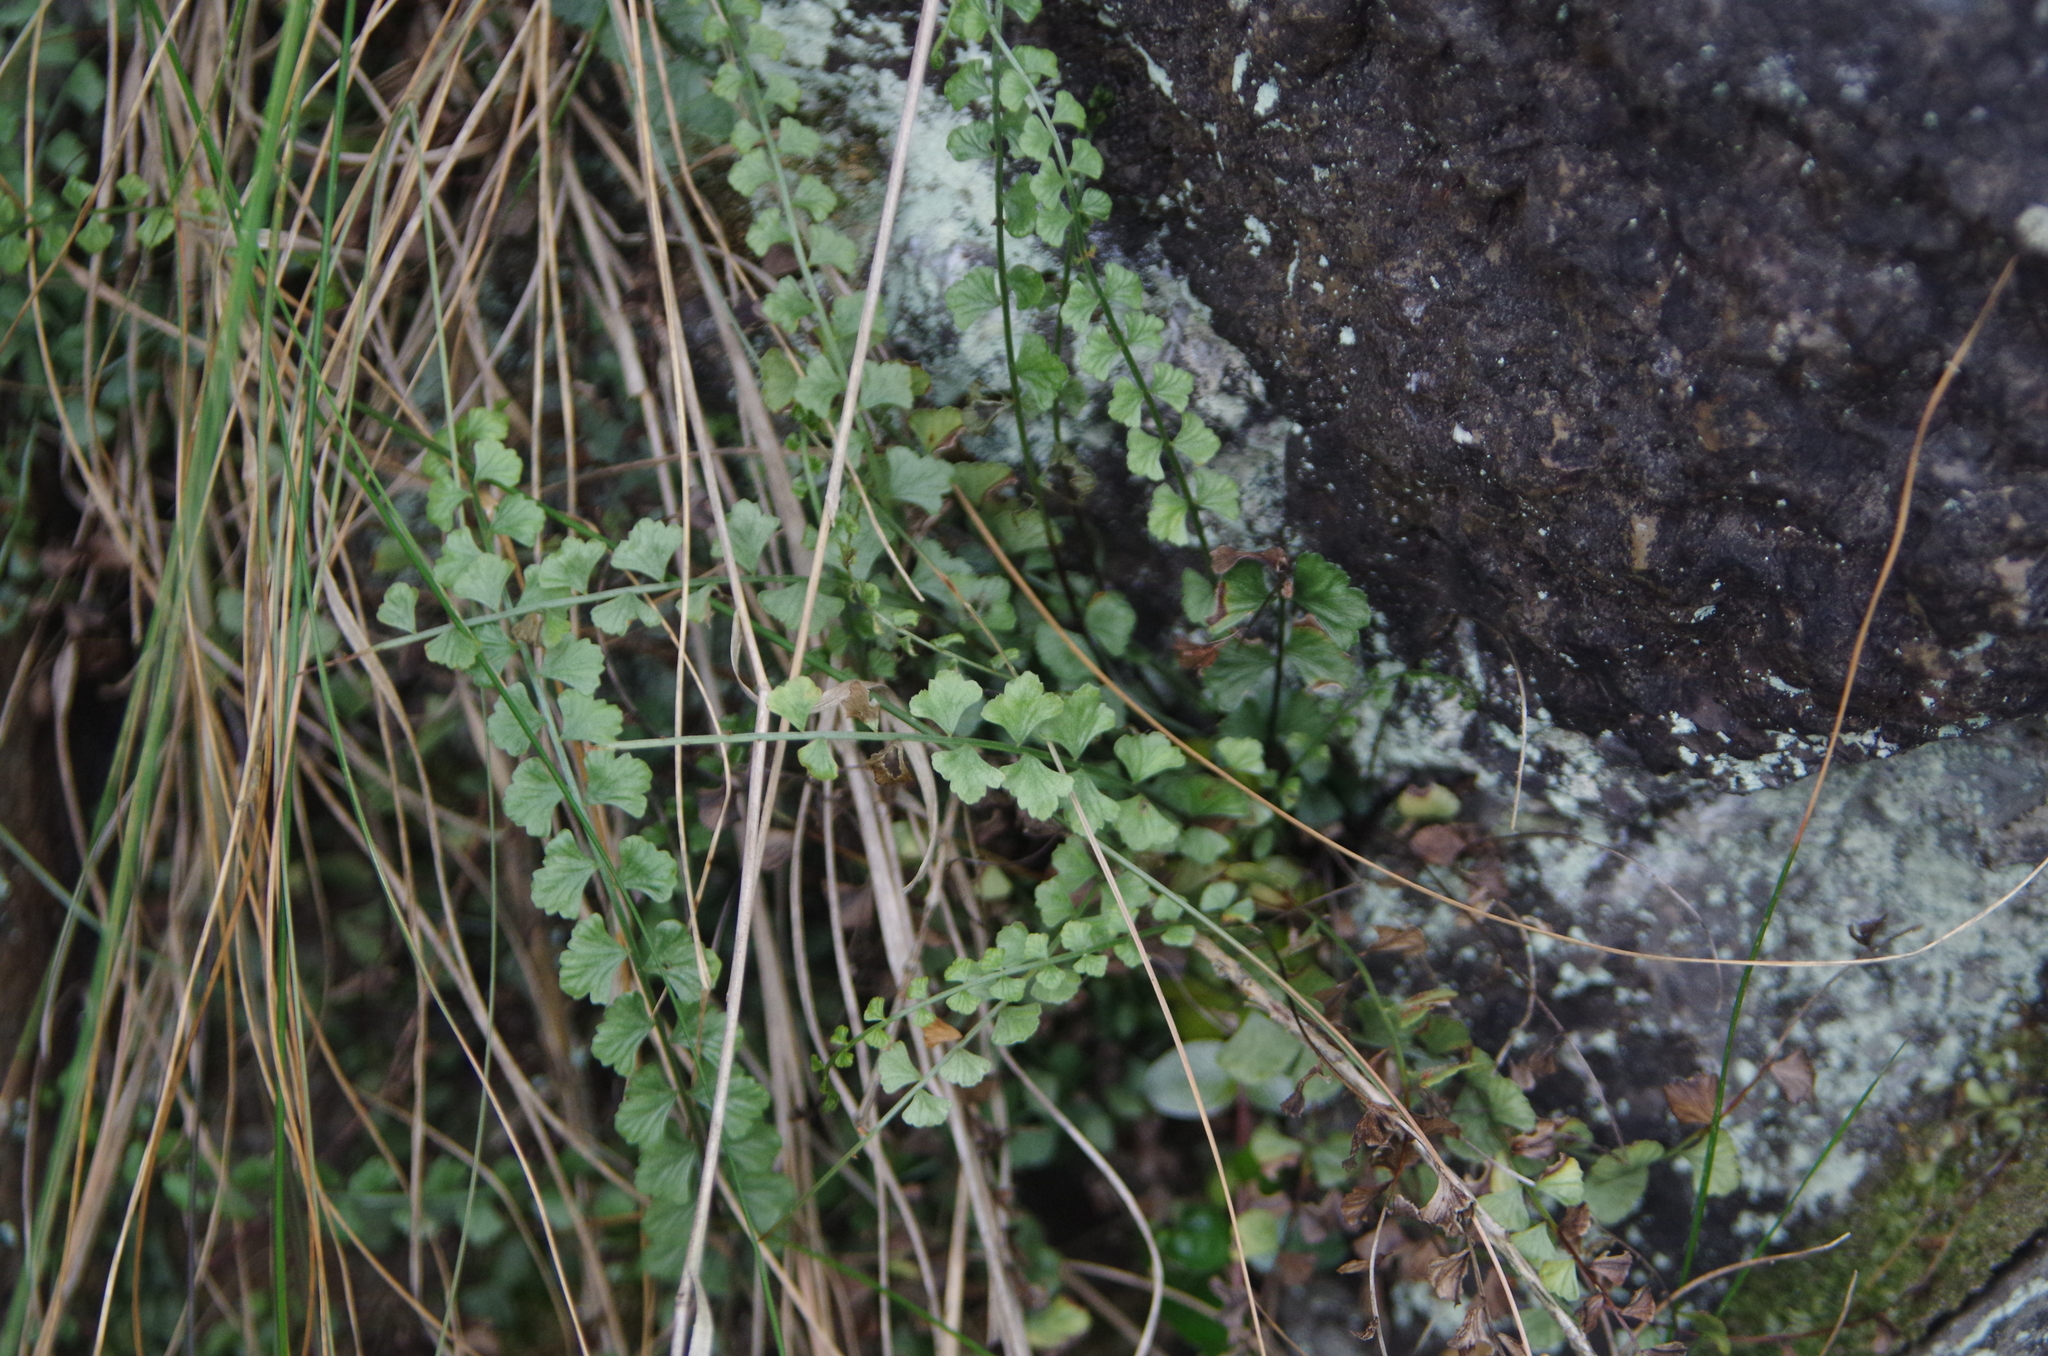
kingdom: Plantae
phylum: Tracheophyta
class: Polypodiopsida
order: Polypodiales
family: Aspleniaceae
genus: Asplenium
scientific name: Asplenium flabellifolium
